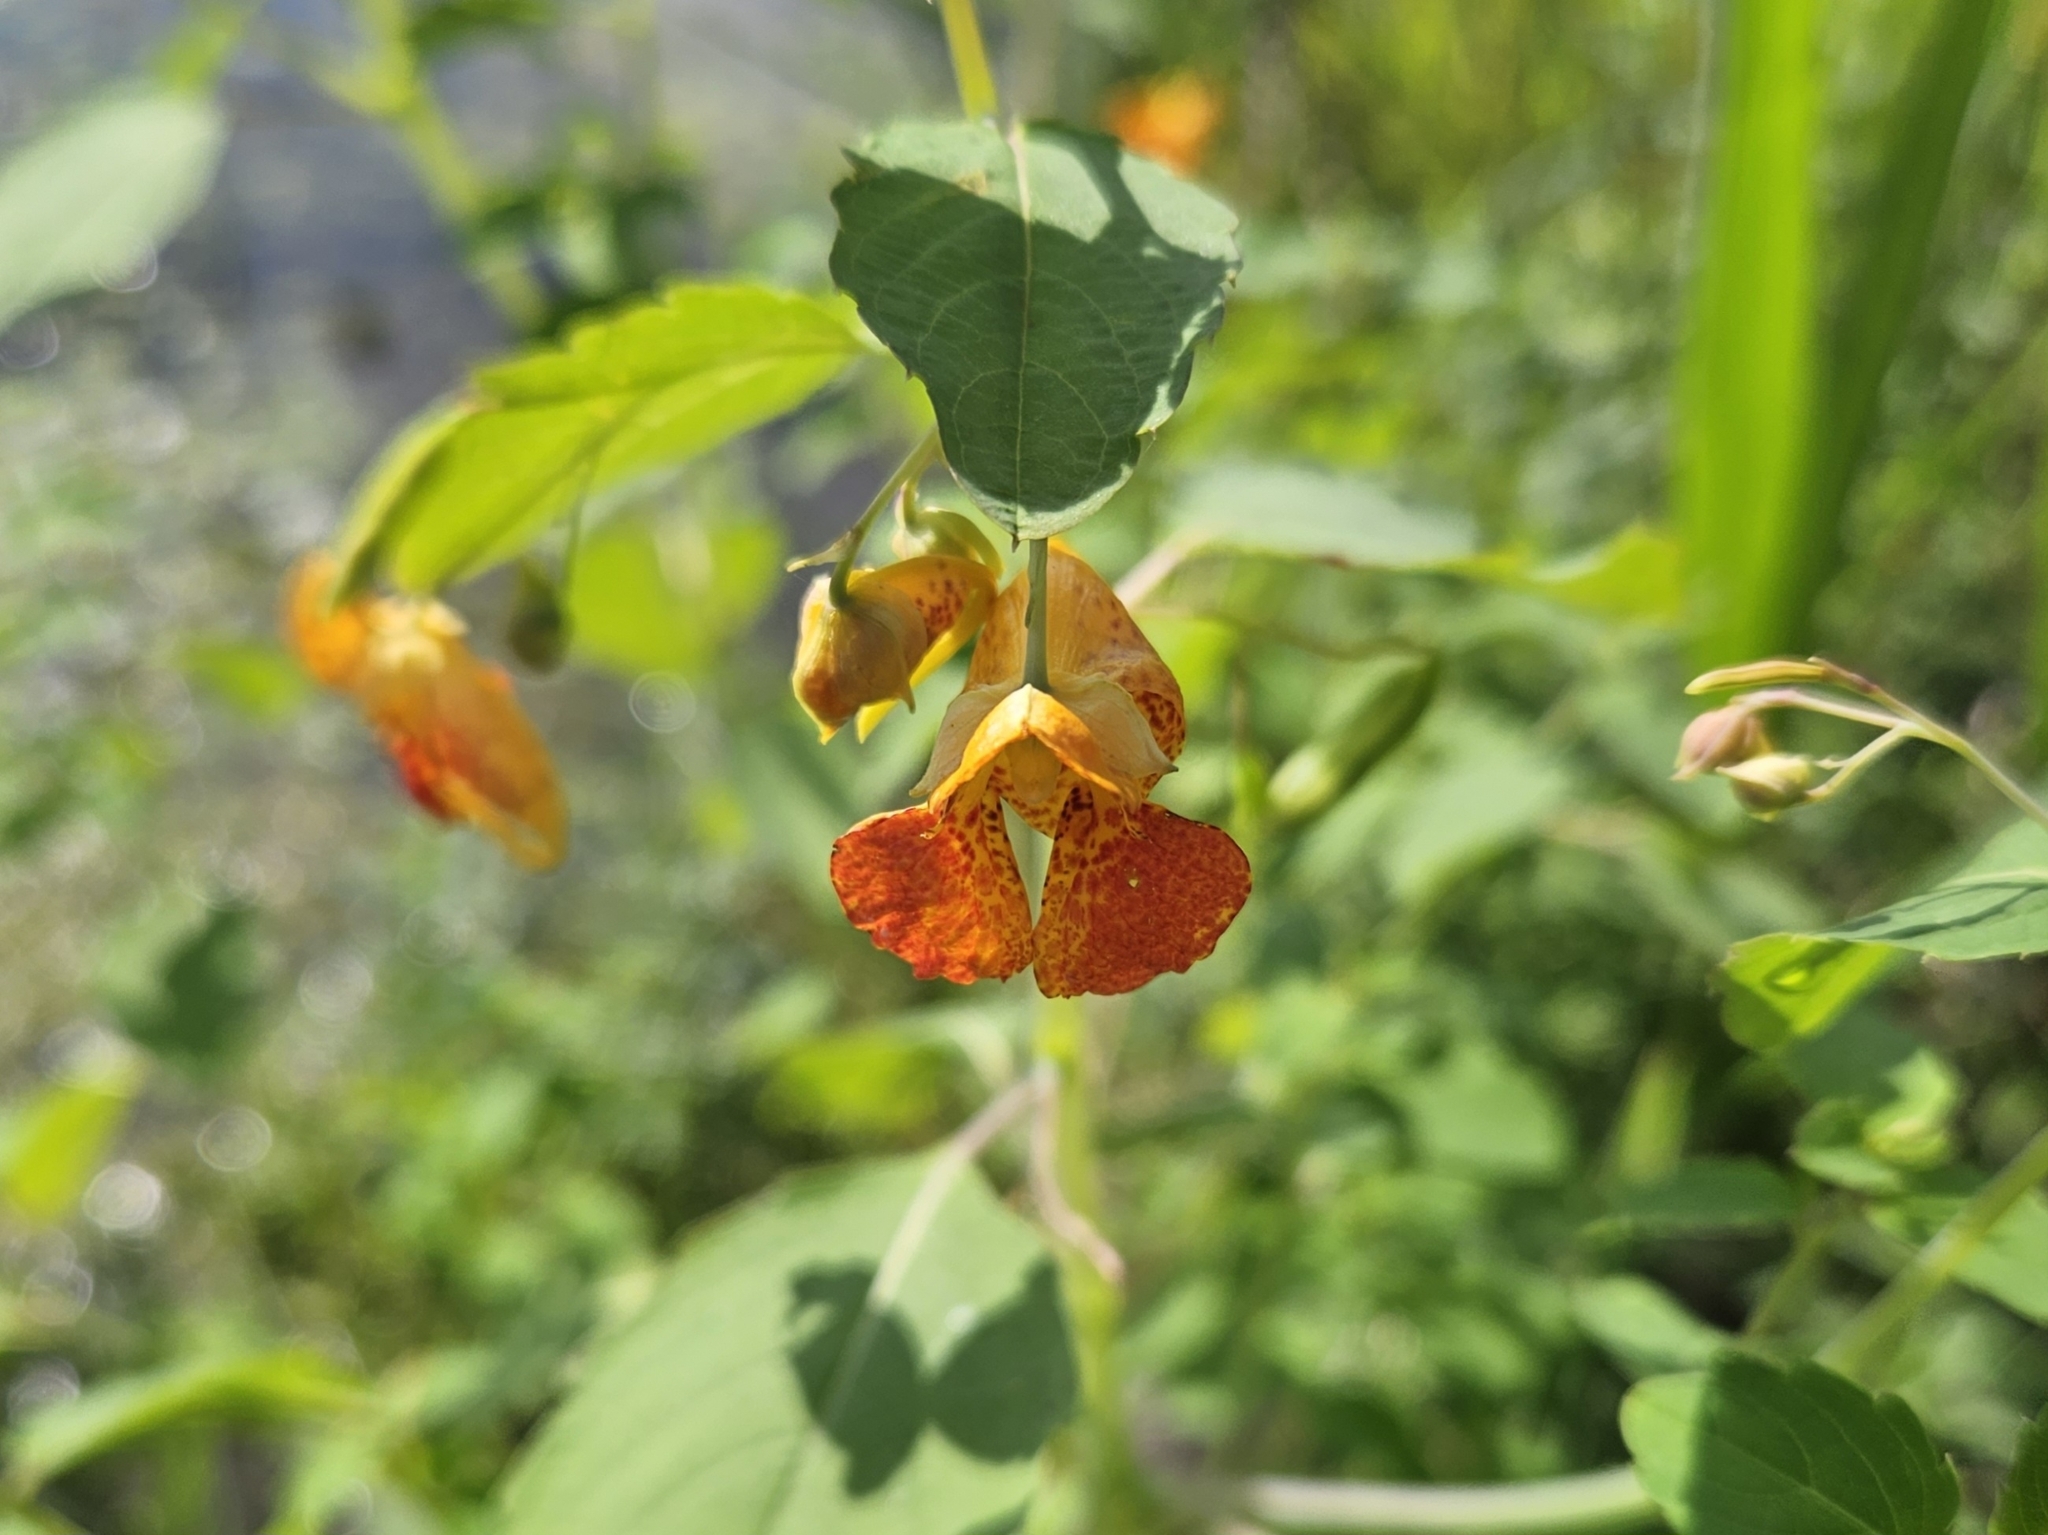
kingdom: Plantae
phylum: Tracheophyta
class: Magnoliopsida
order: Ericales
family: Balsaminaceae
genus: Impatiens
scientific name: Impatiens capensis
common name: Orange balsam
